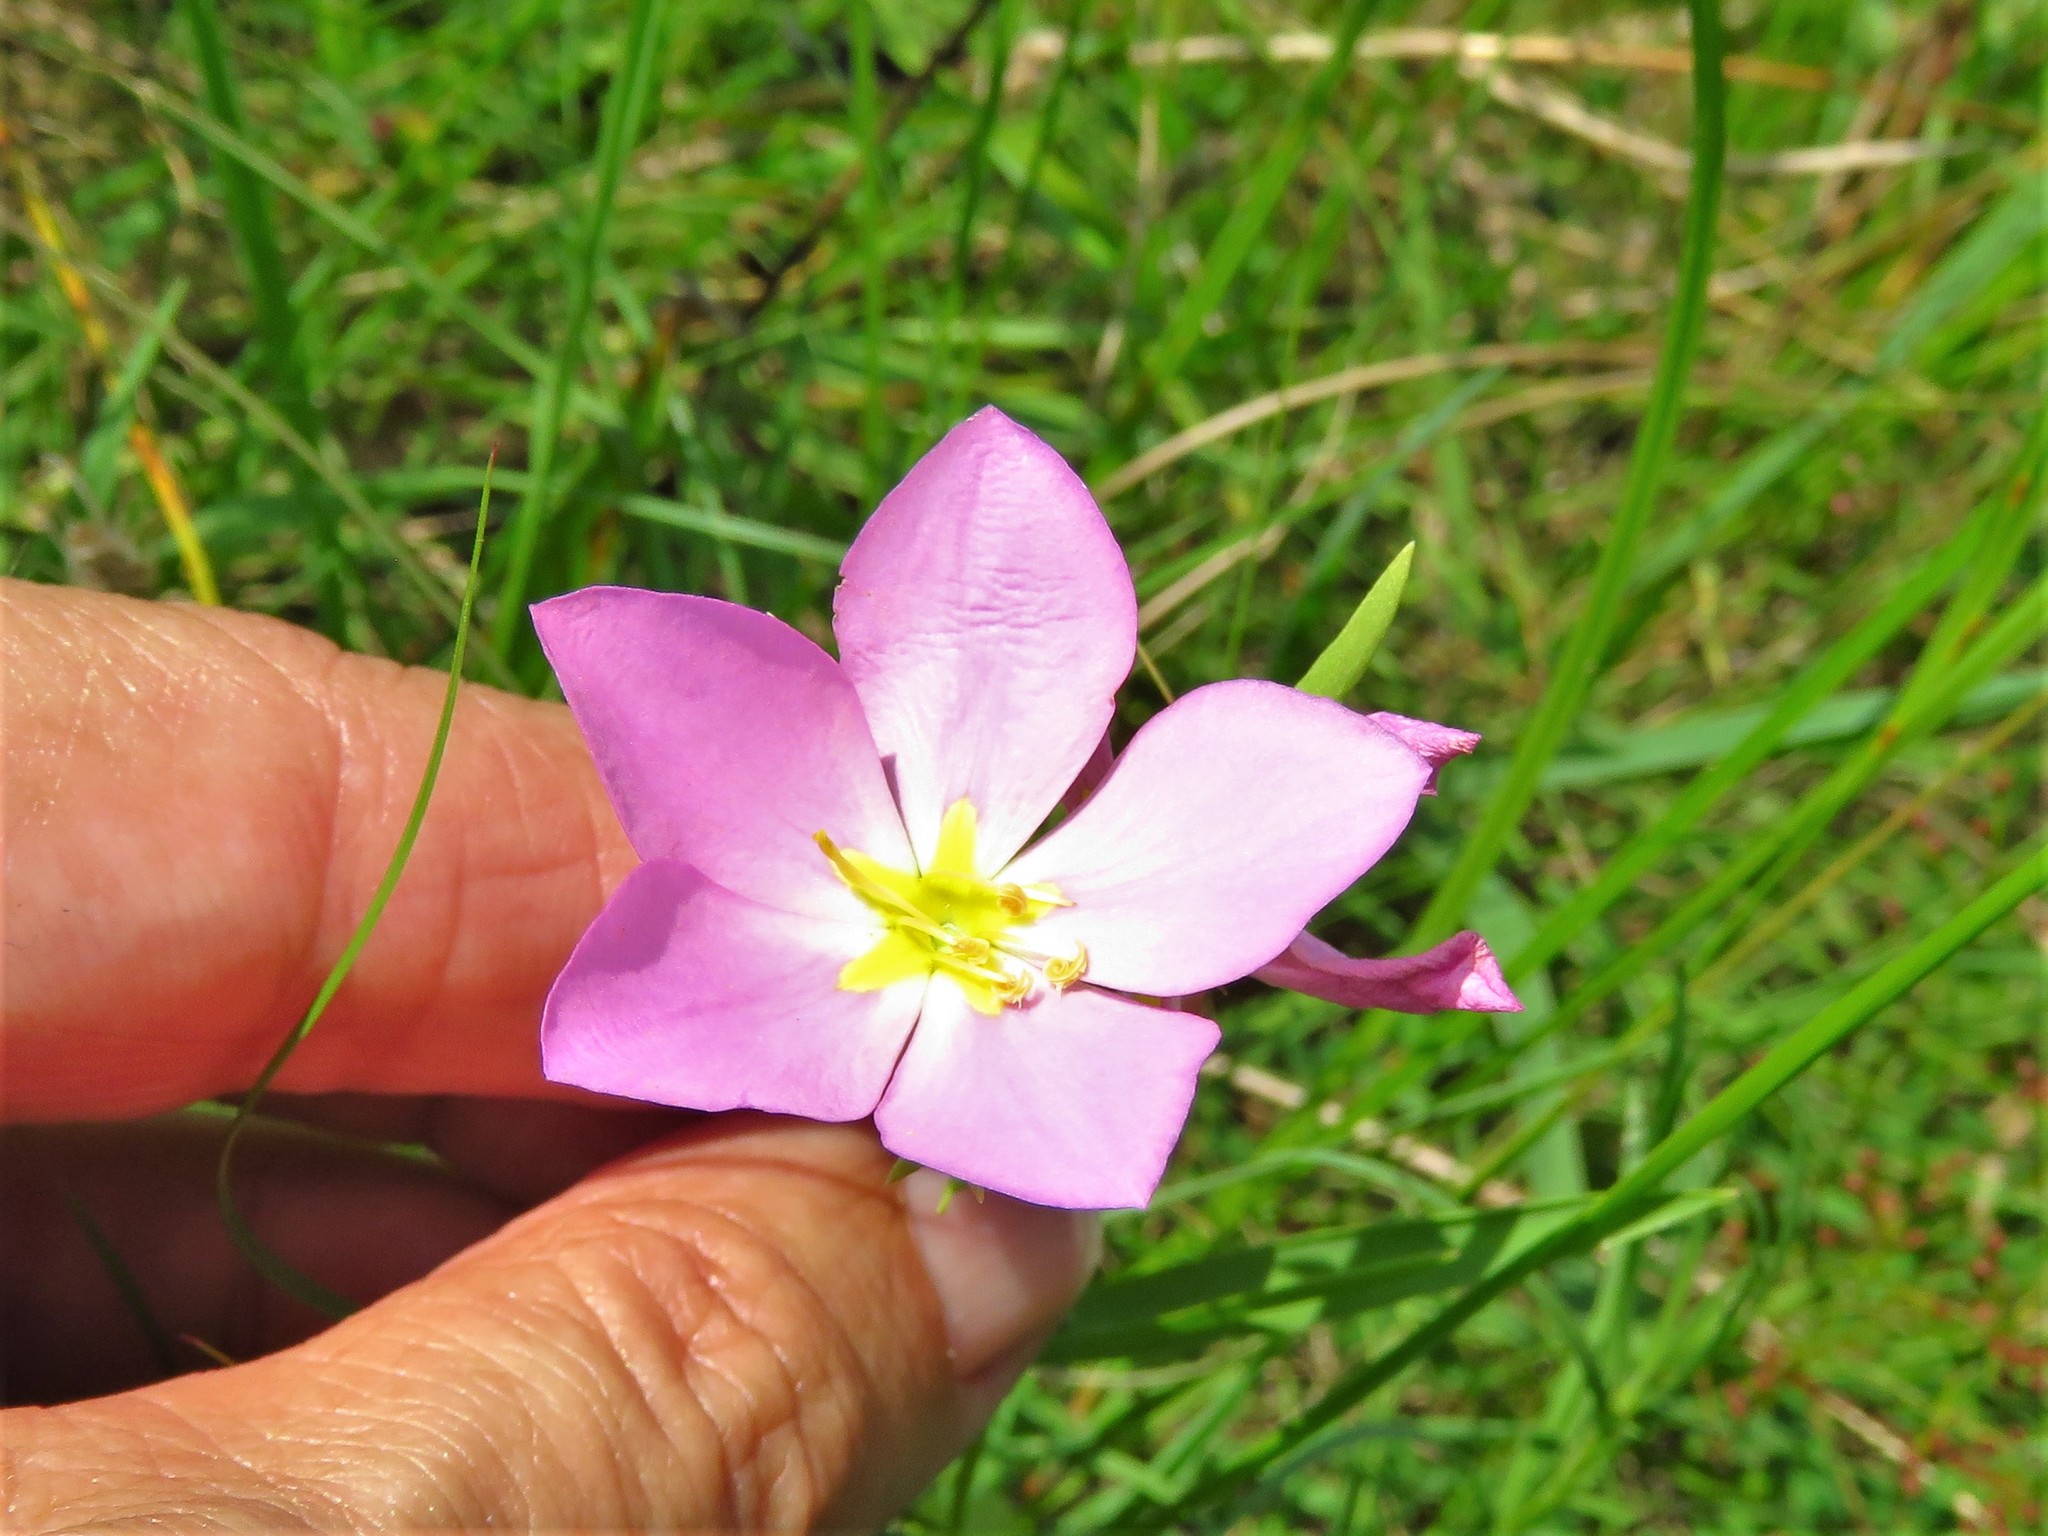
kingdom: Plantae
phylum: Tracheophyta
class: Magnoliopsida
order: Gentianales
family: Gentianaceae
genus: Sabatia
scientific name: Sabatia campestris
